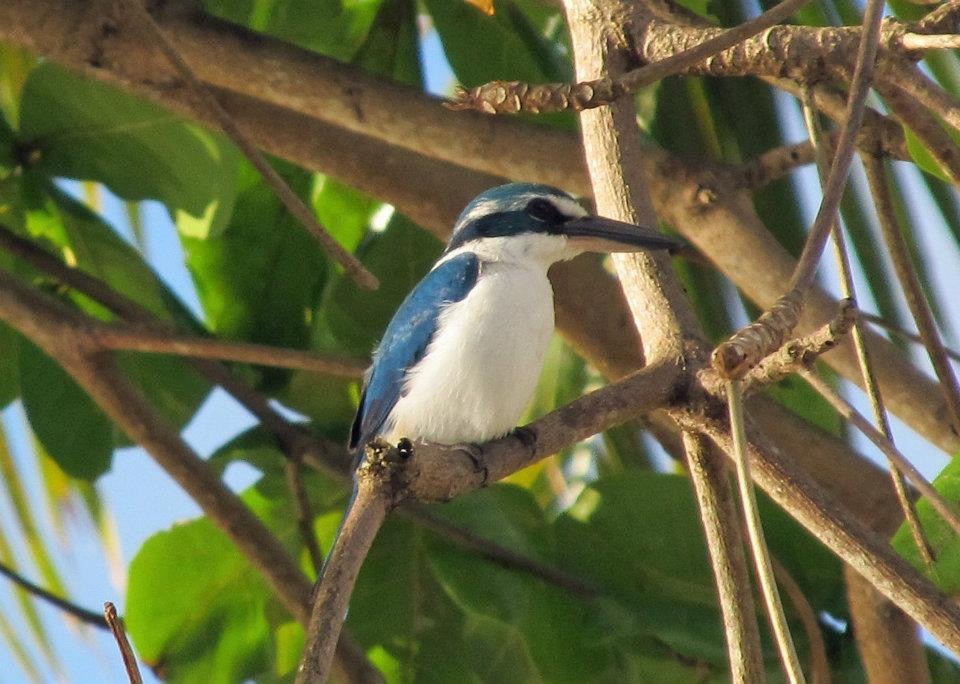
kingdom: Animalia
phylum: Chordata
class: Aves
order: Coraciiformes
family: Alcedinidae
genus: Todiramphus
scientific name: Todiramphus sacer
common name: Pacific kingfisher
